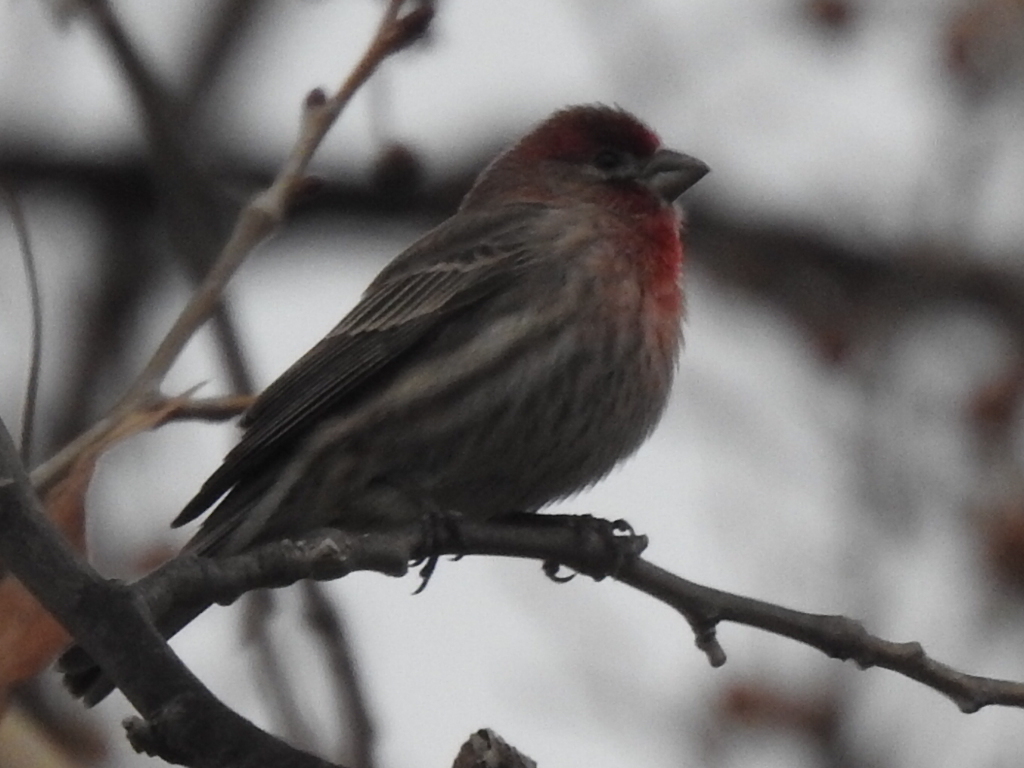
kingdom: Animalia
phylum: Chordata
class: Aves
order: Passeriformes
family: Fringillidae
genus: Haemorhous
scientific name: Haemorhous mexicanus
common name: House finch
